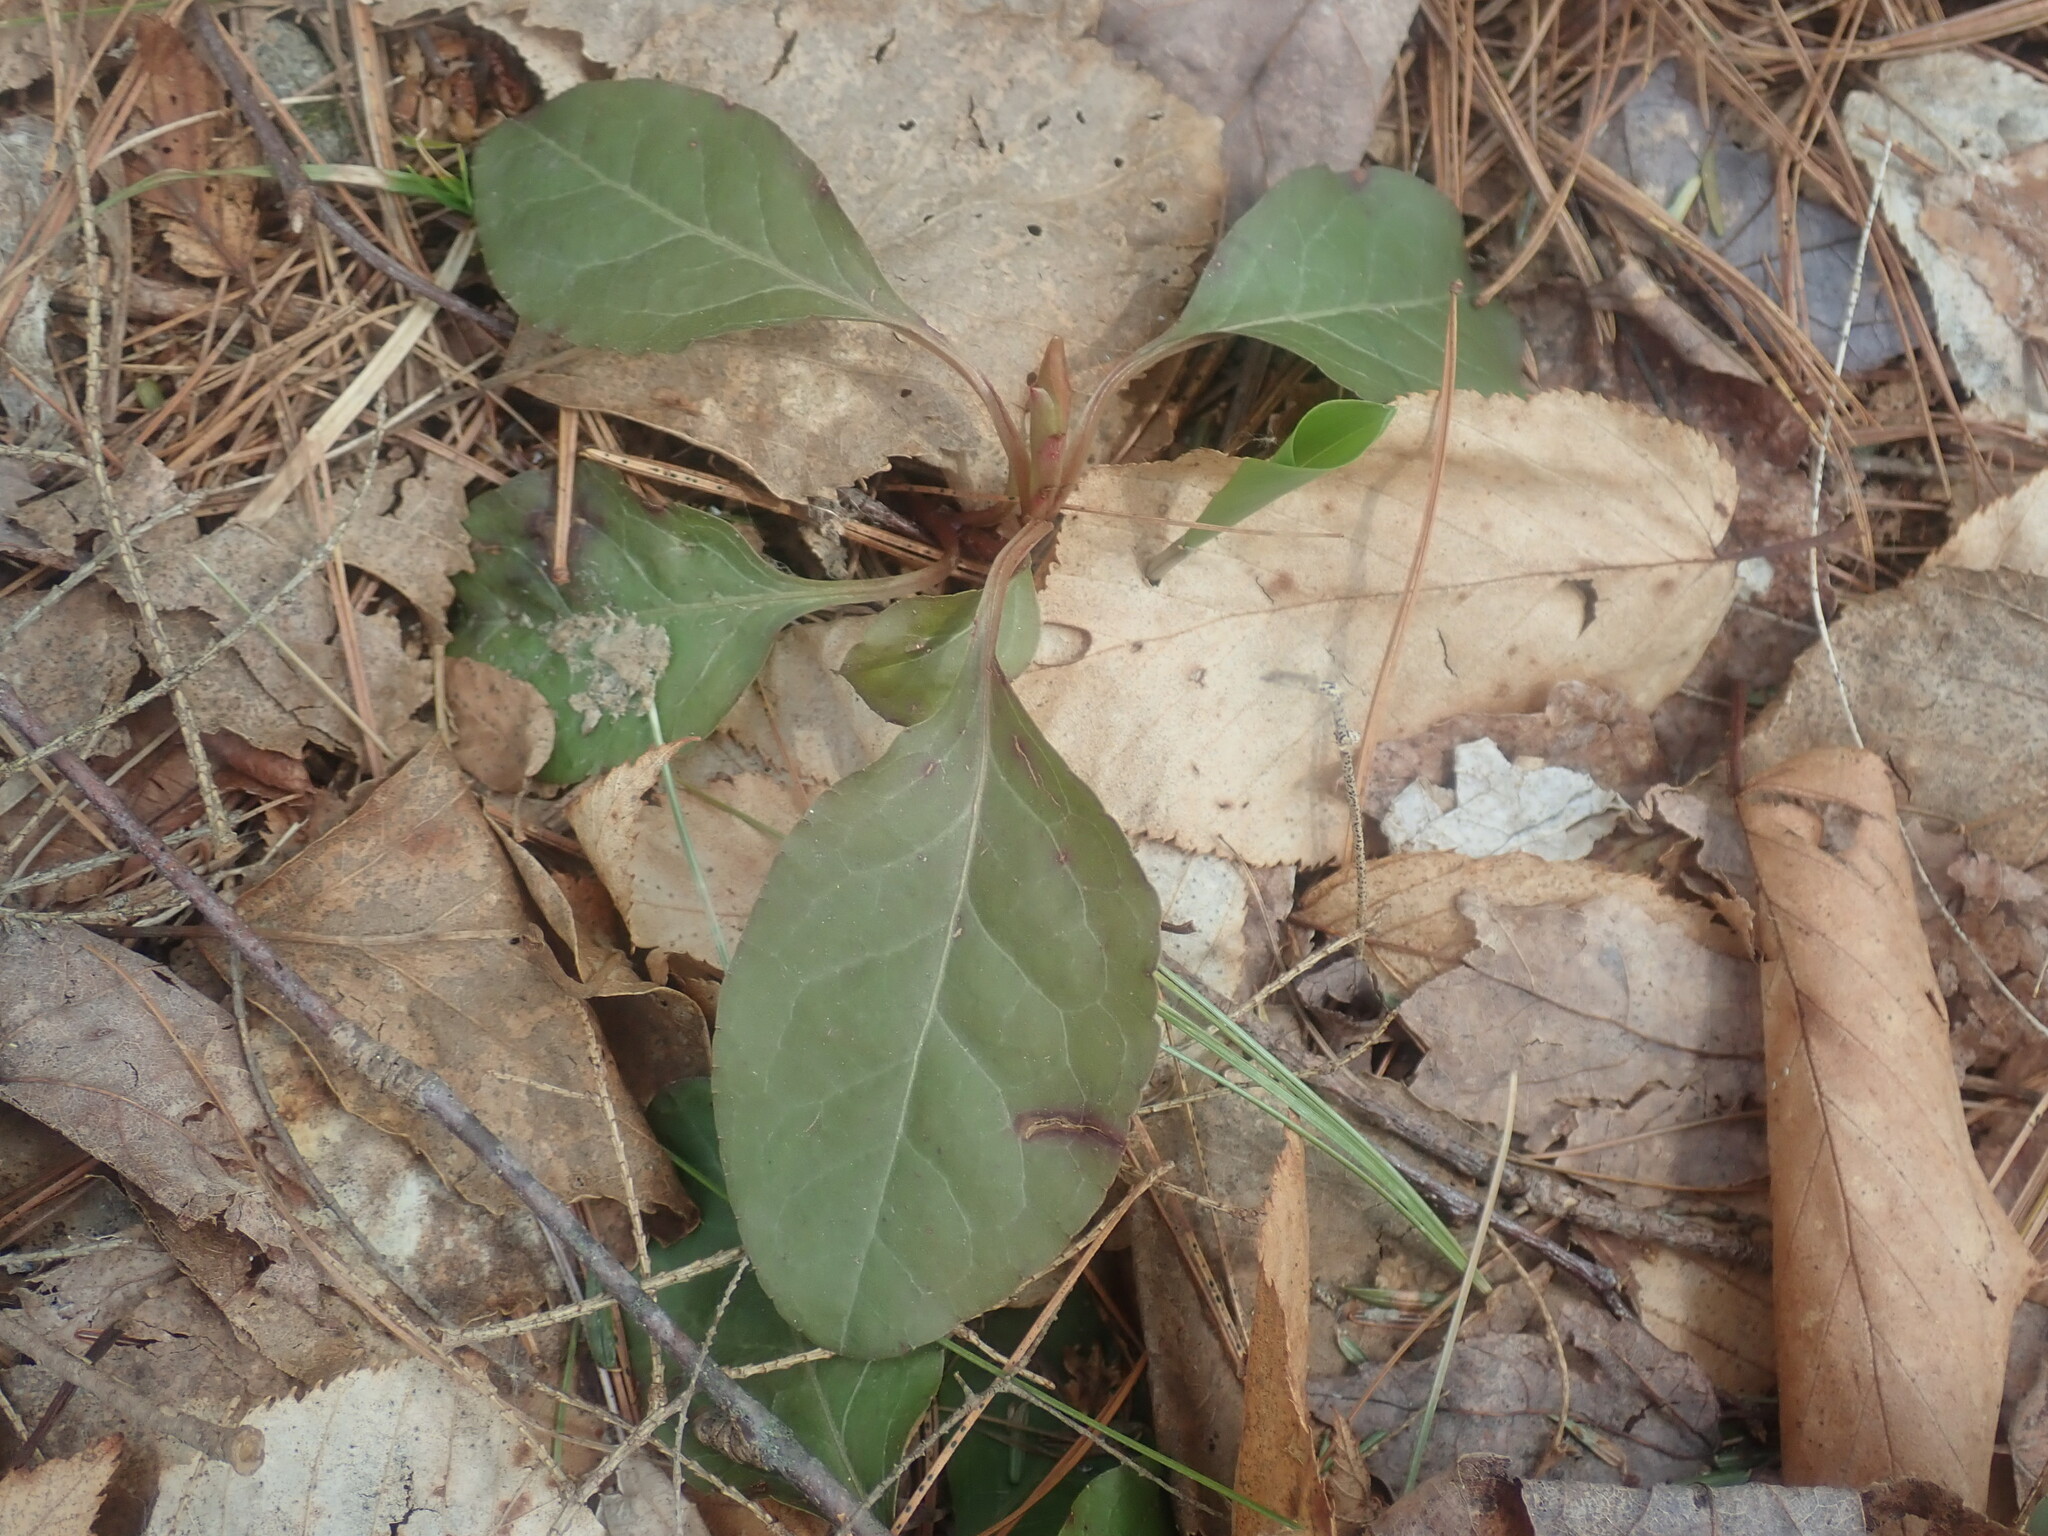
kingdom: Plantae
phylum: Tracheophyta
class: Magnoliopsida
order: Ericales
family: Ericaceae
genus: Pyrola
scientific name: Pyrola elliptica
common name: Shinleaf
